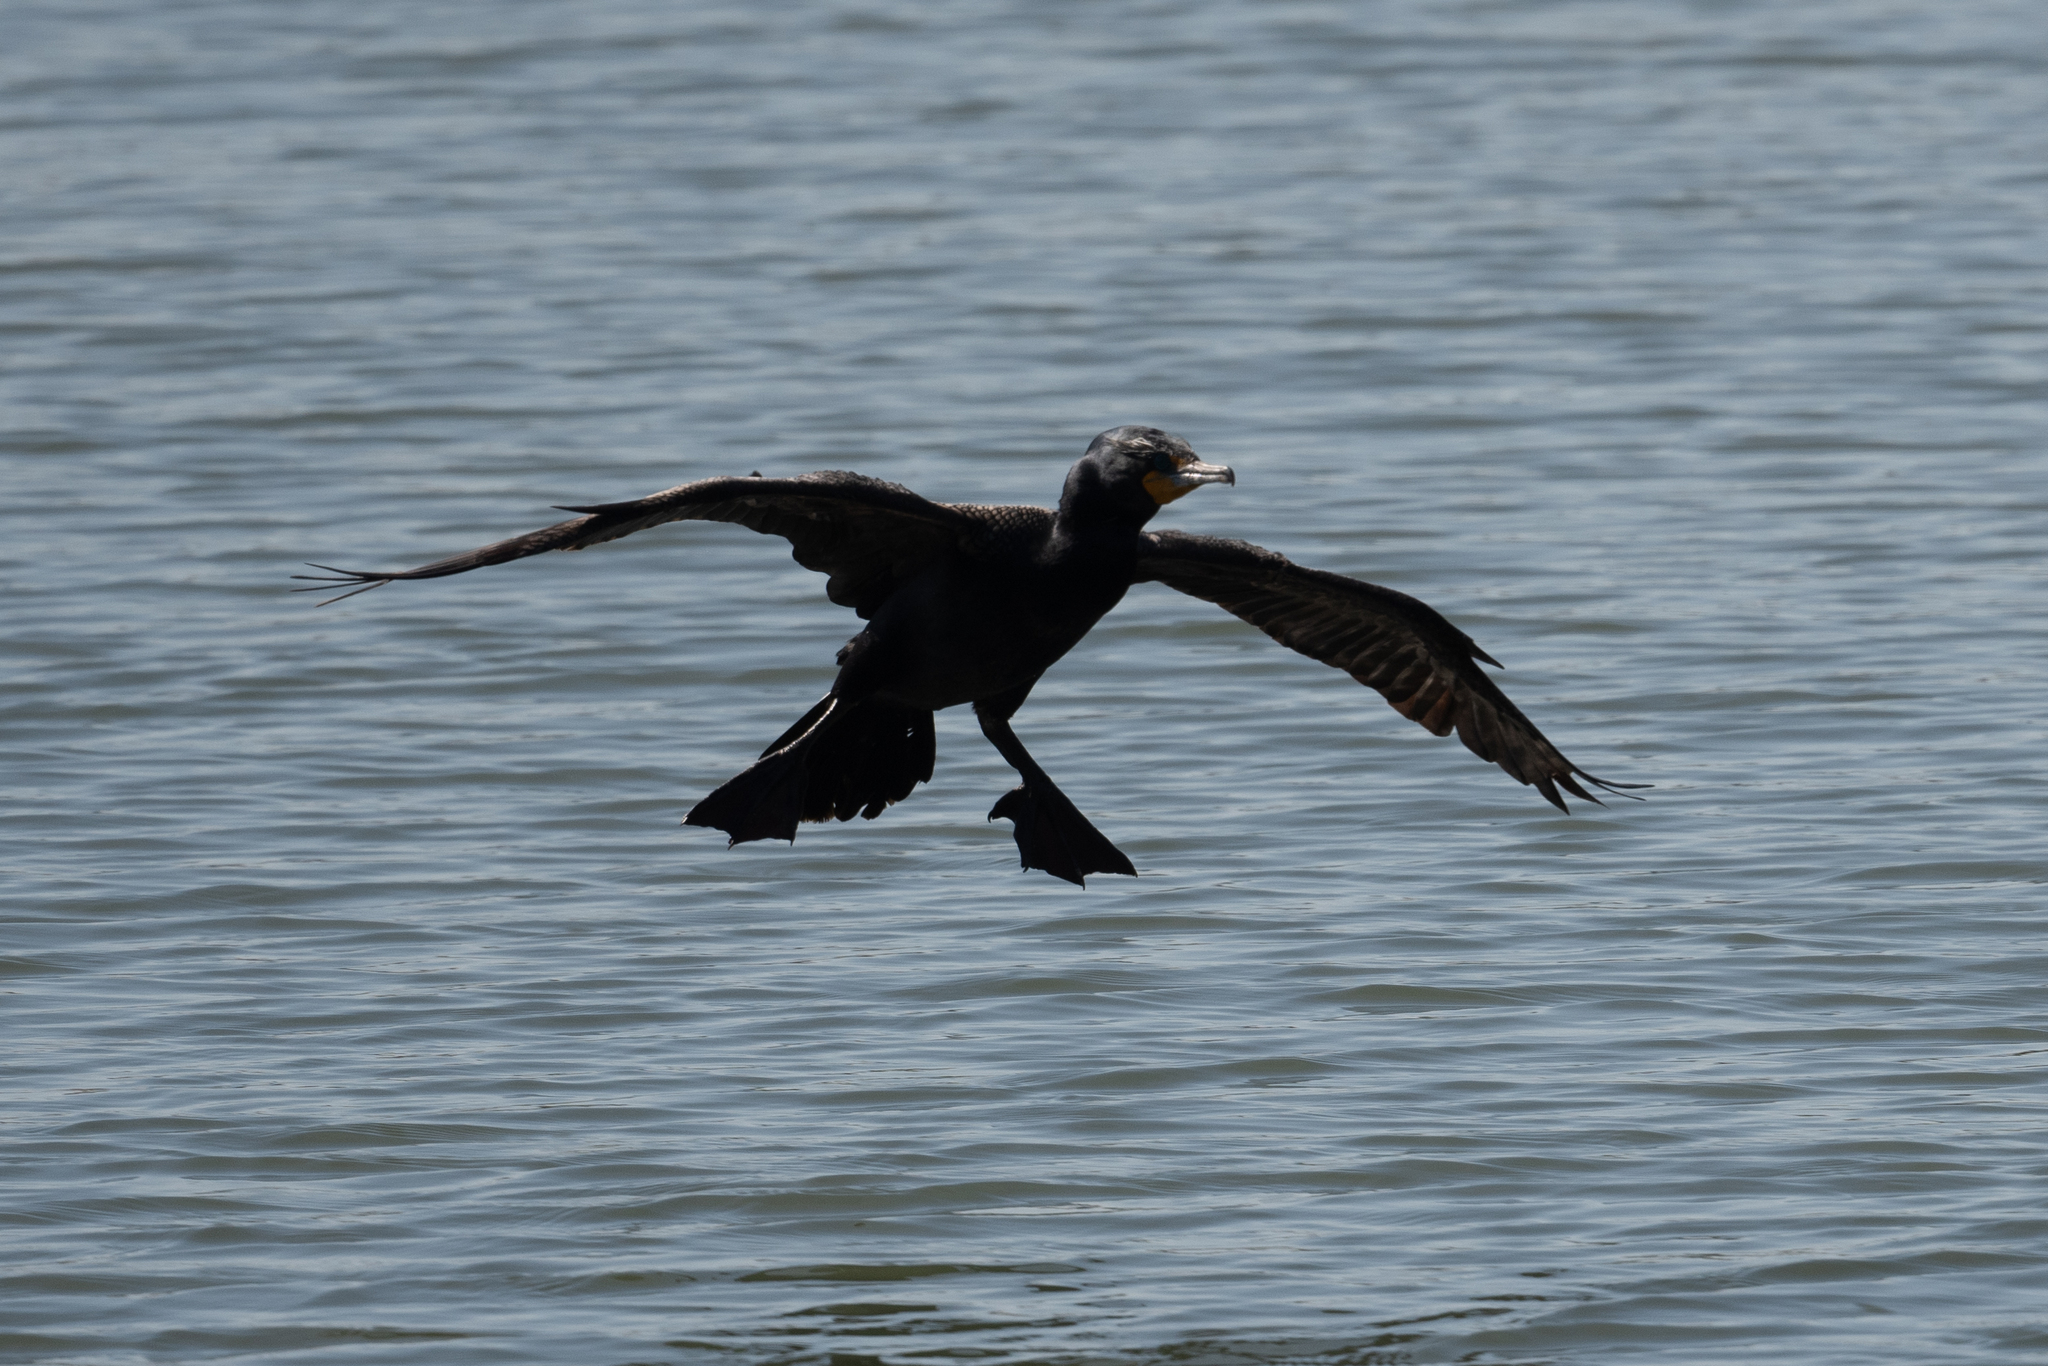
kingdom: Animalia
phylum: Chordata
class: Aves
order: Suliformes
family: Phalacrocoracidae
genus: Phalacrocorax
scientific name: Phalacrocorax auritus
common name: Double-crested cormorant
